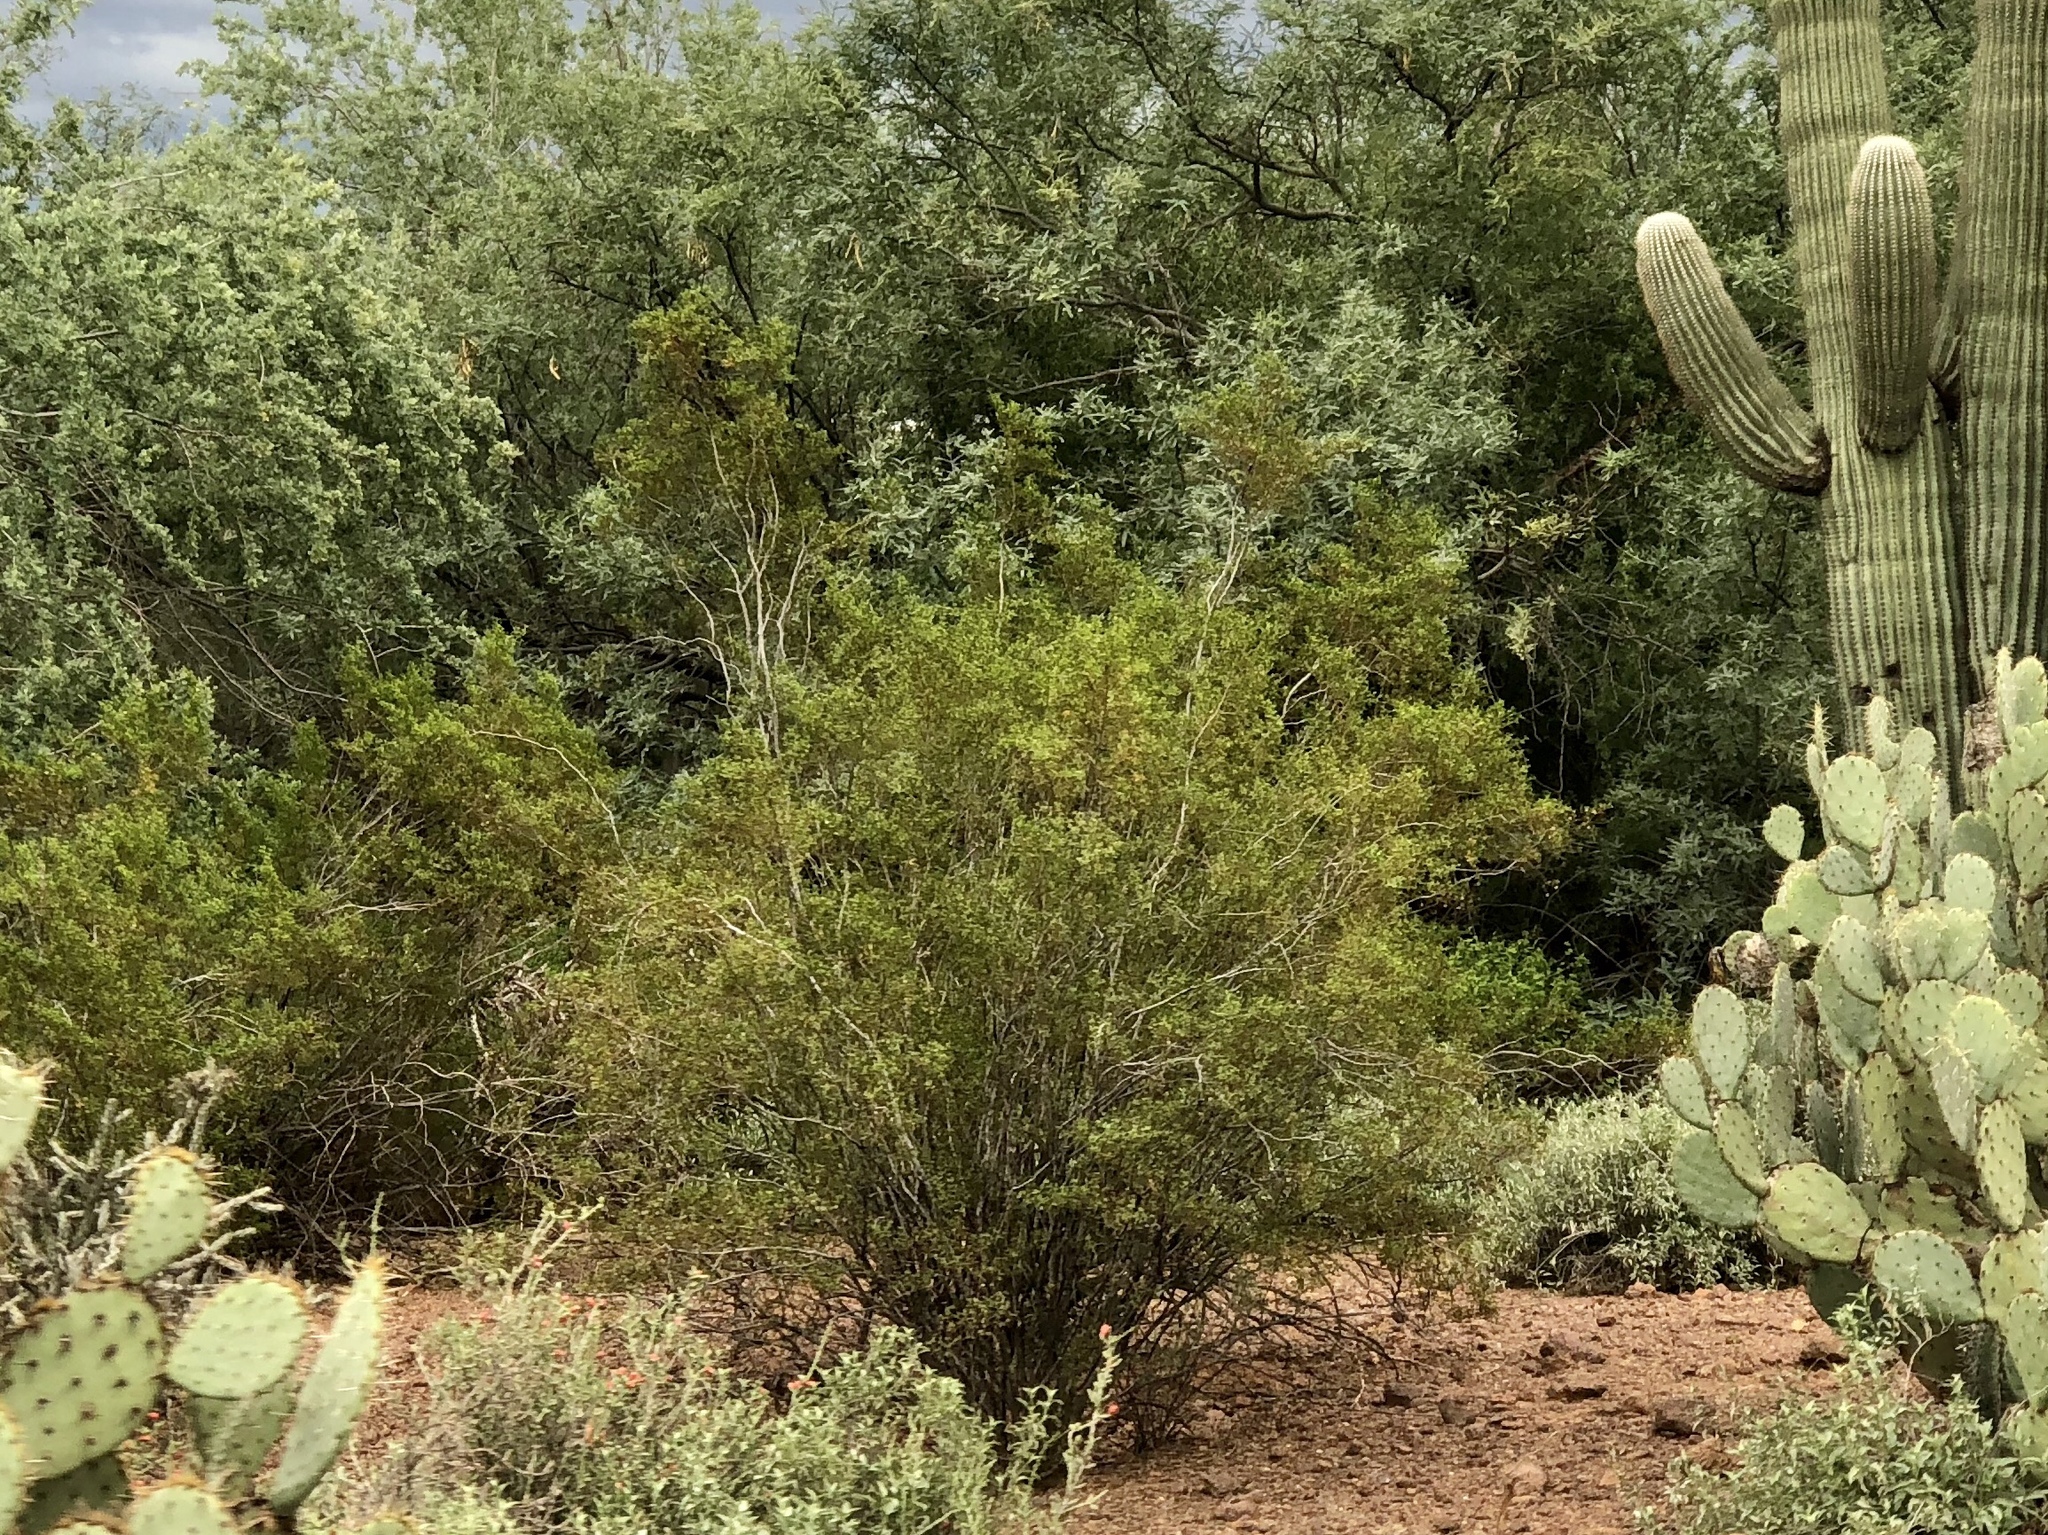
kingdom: Plantae
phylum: Tracheophyta
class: Magnoliopsida
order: Zygophyllales
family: Zygophyllaceae
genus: Larrea
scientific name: Larrea tridentata
